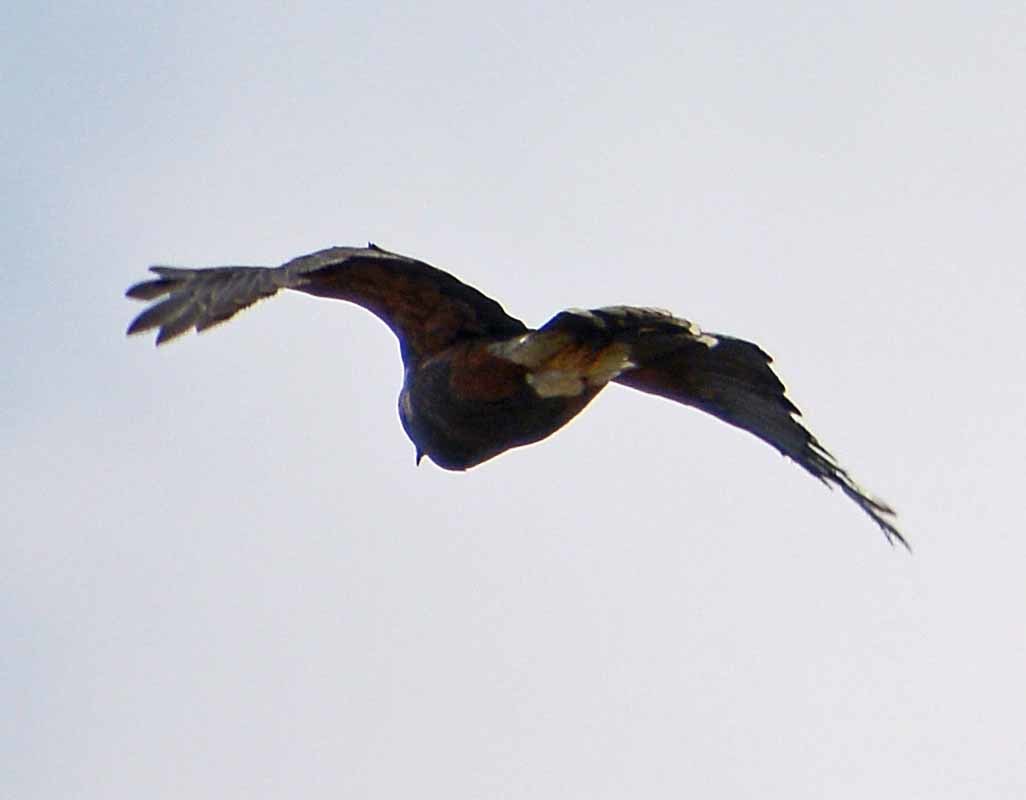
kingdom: Animalia
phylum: Chordata
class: Aves
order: Accipitriformes
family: Accipitridae
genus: Parabuteo
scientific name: Parabuteo unicinctus
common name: Harris's hawk
